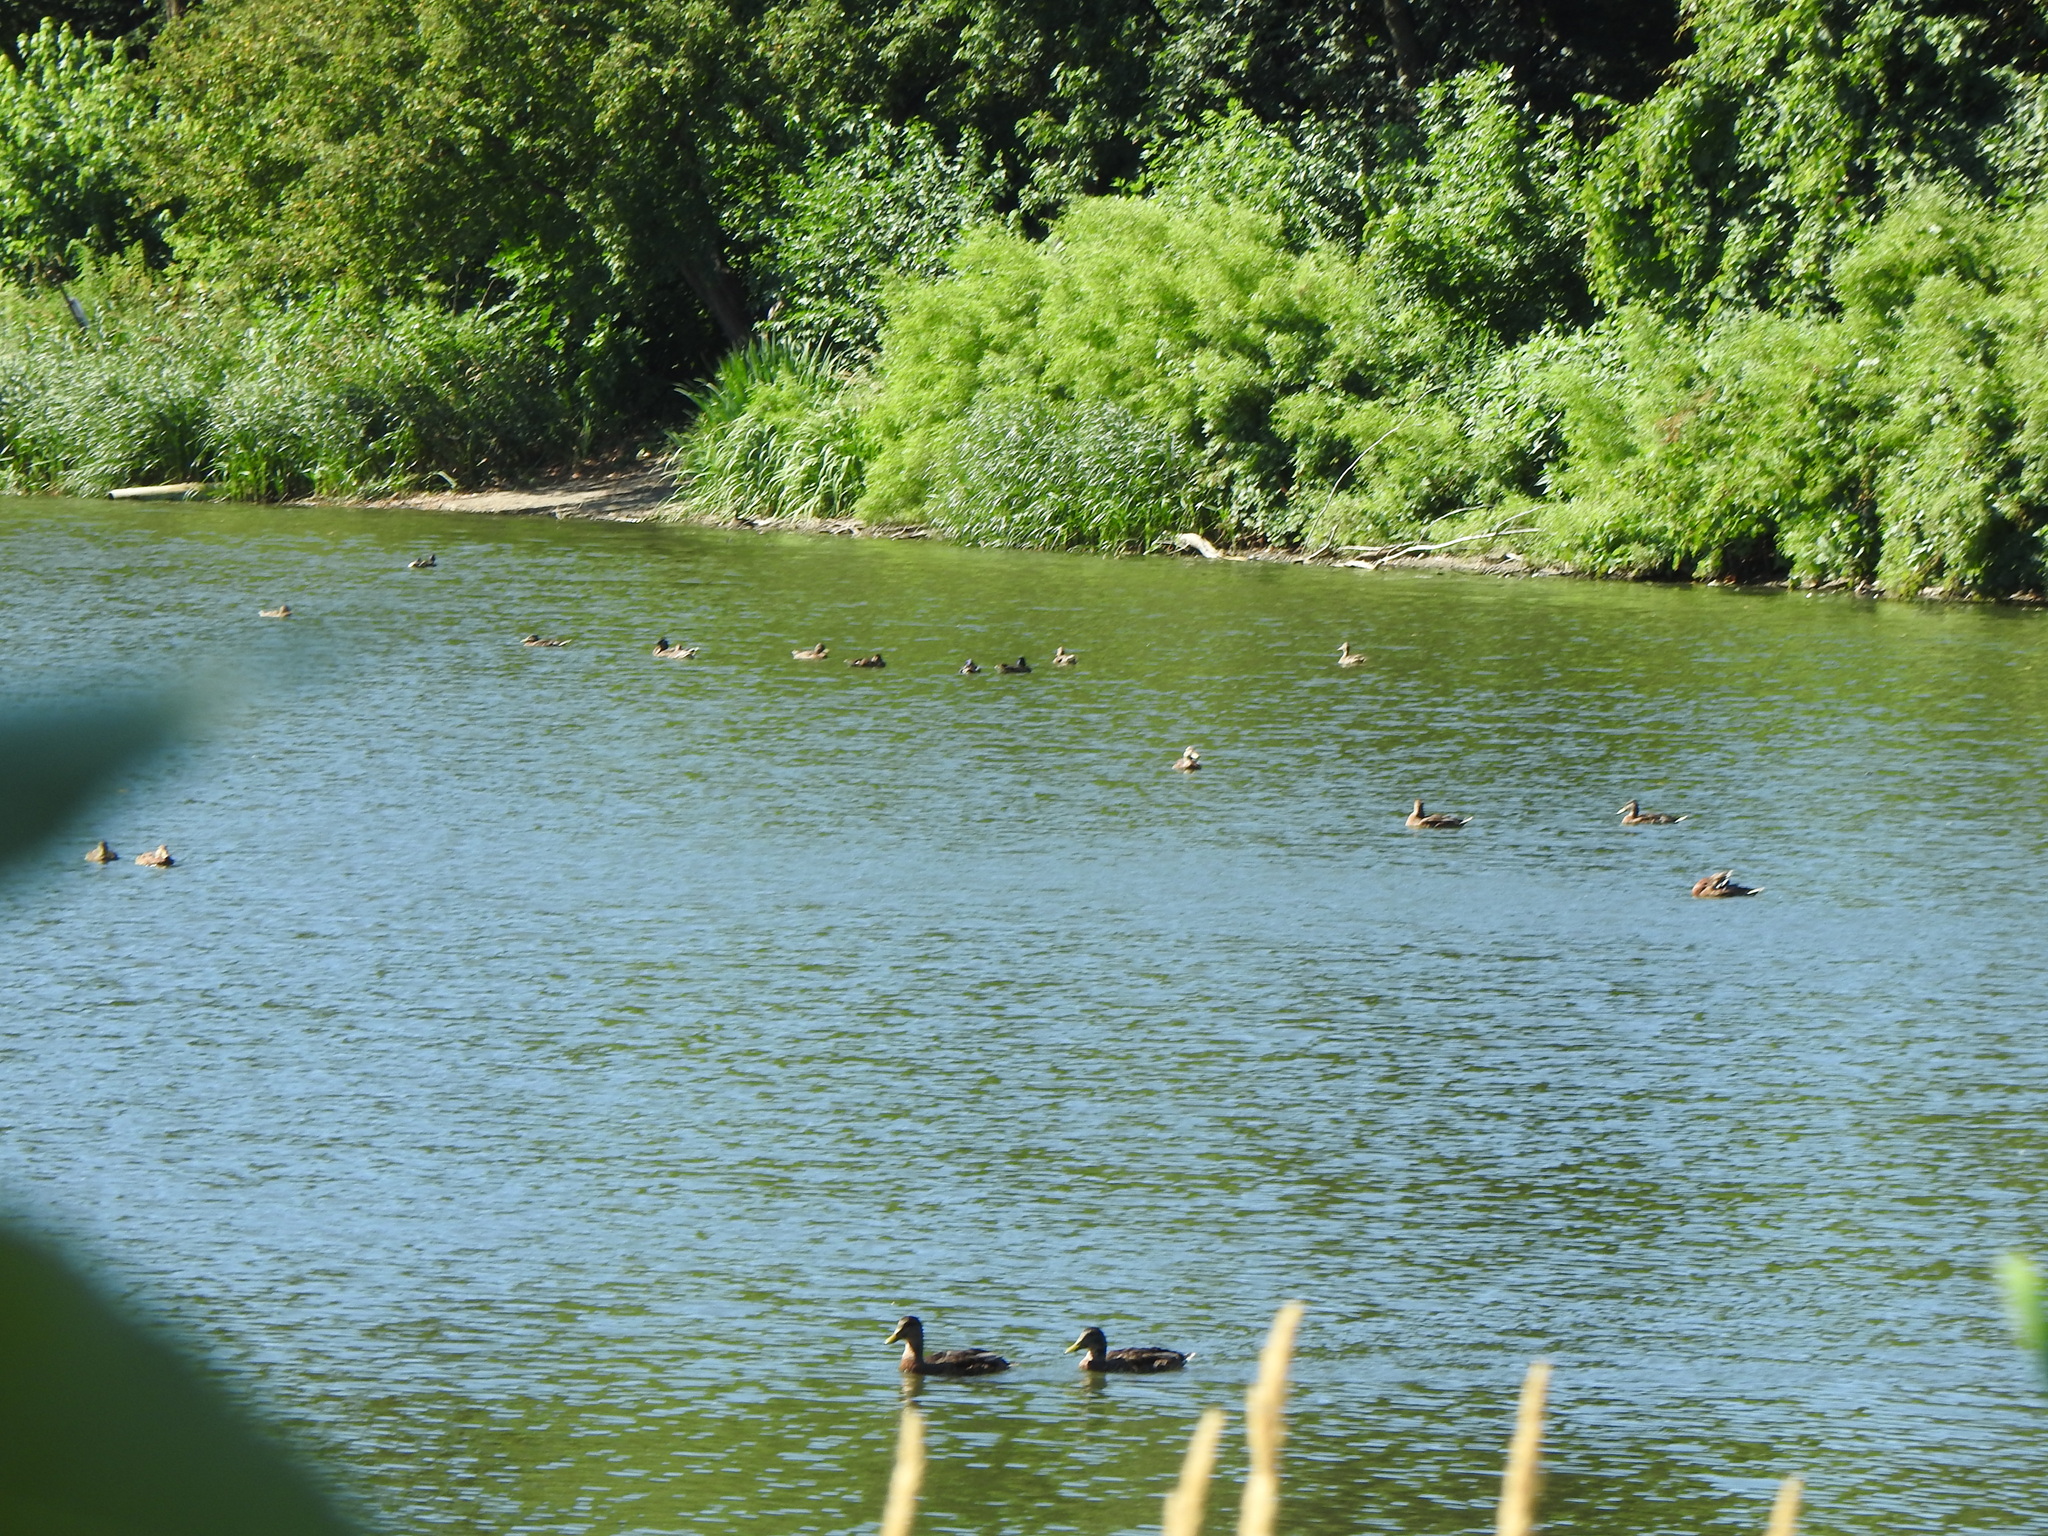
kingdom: Animalia
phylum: Chordata
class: Aves
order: Anseriformes
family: Anatidae
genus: Anas
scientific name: Anas platyrhynchos
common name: Mallard
